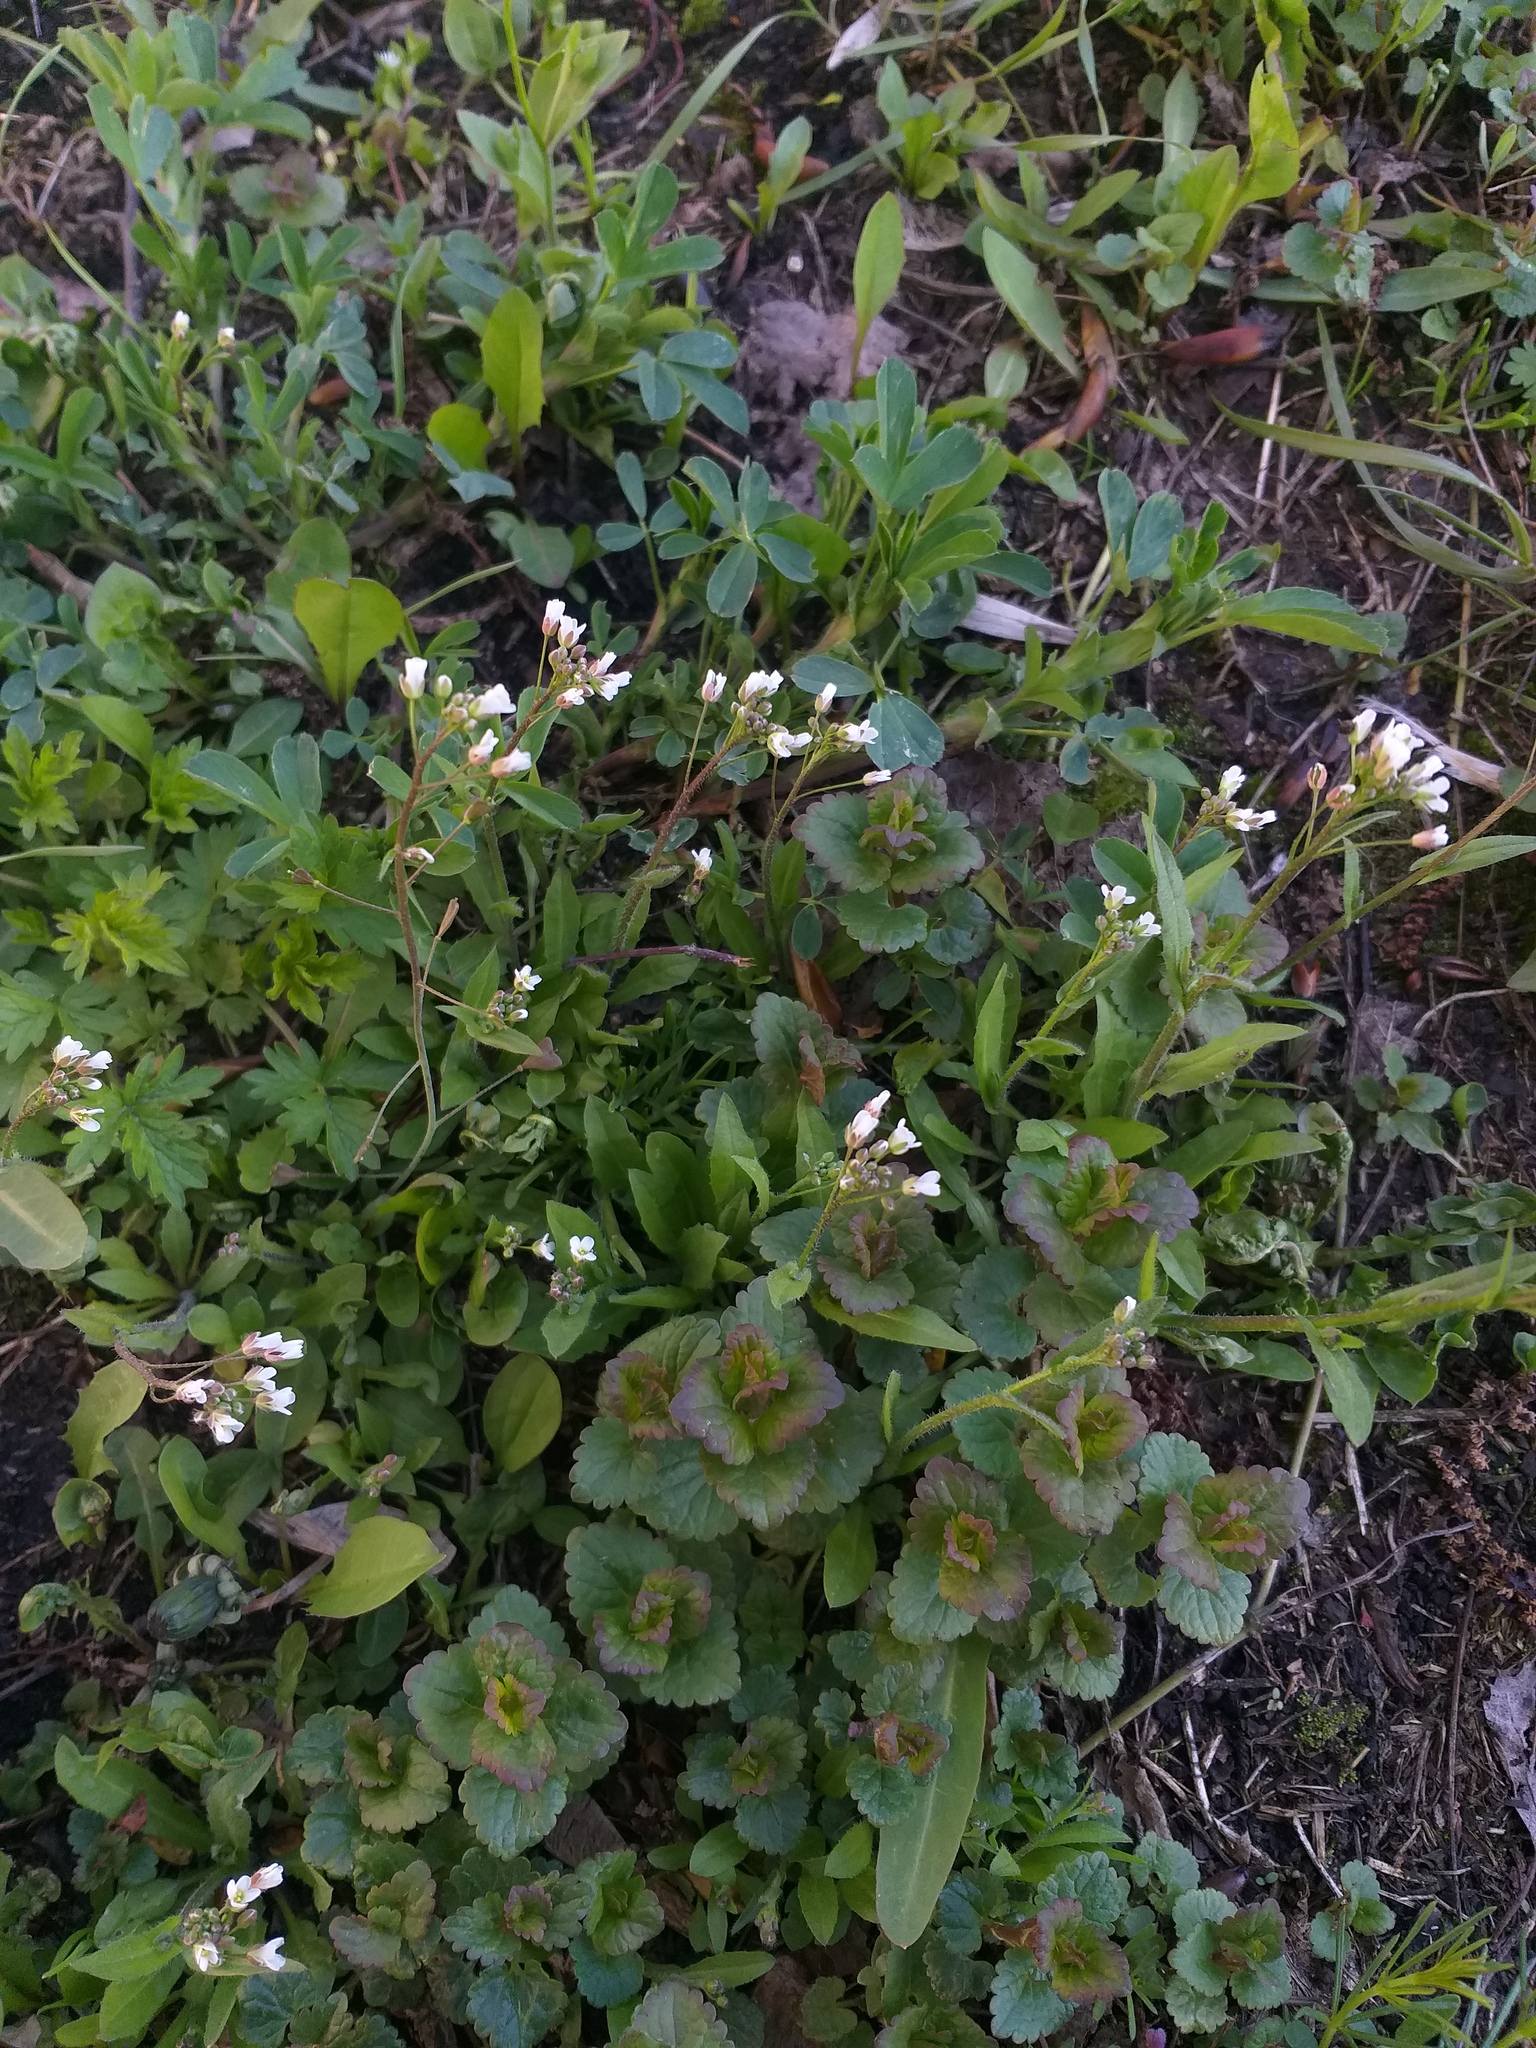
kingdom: Plantae
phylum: Tracheophyta
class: Magnoliopsida
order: Brassicales
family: Brassicaceae
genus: Capsella
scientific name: Capsella bursa-pastoris
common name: Shepherd's purse
